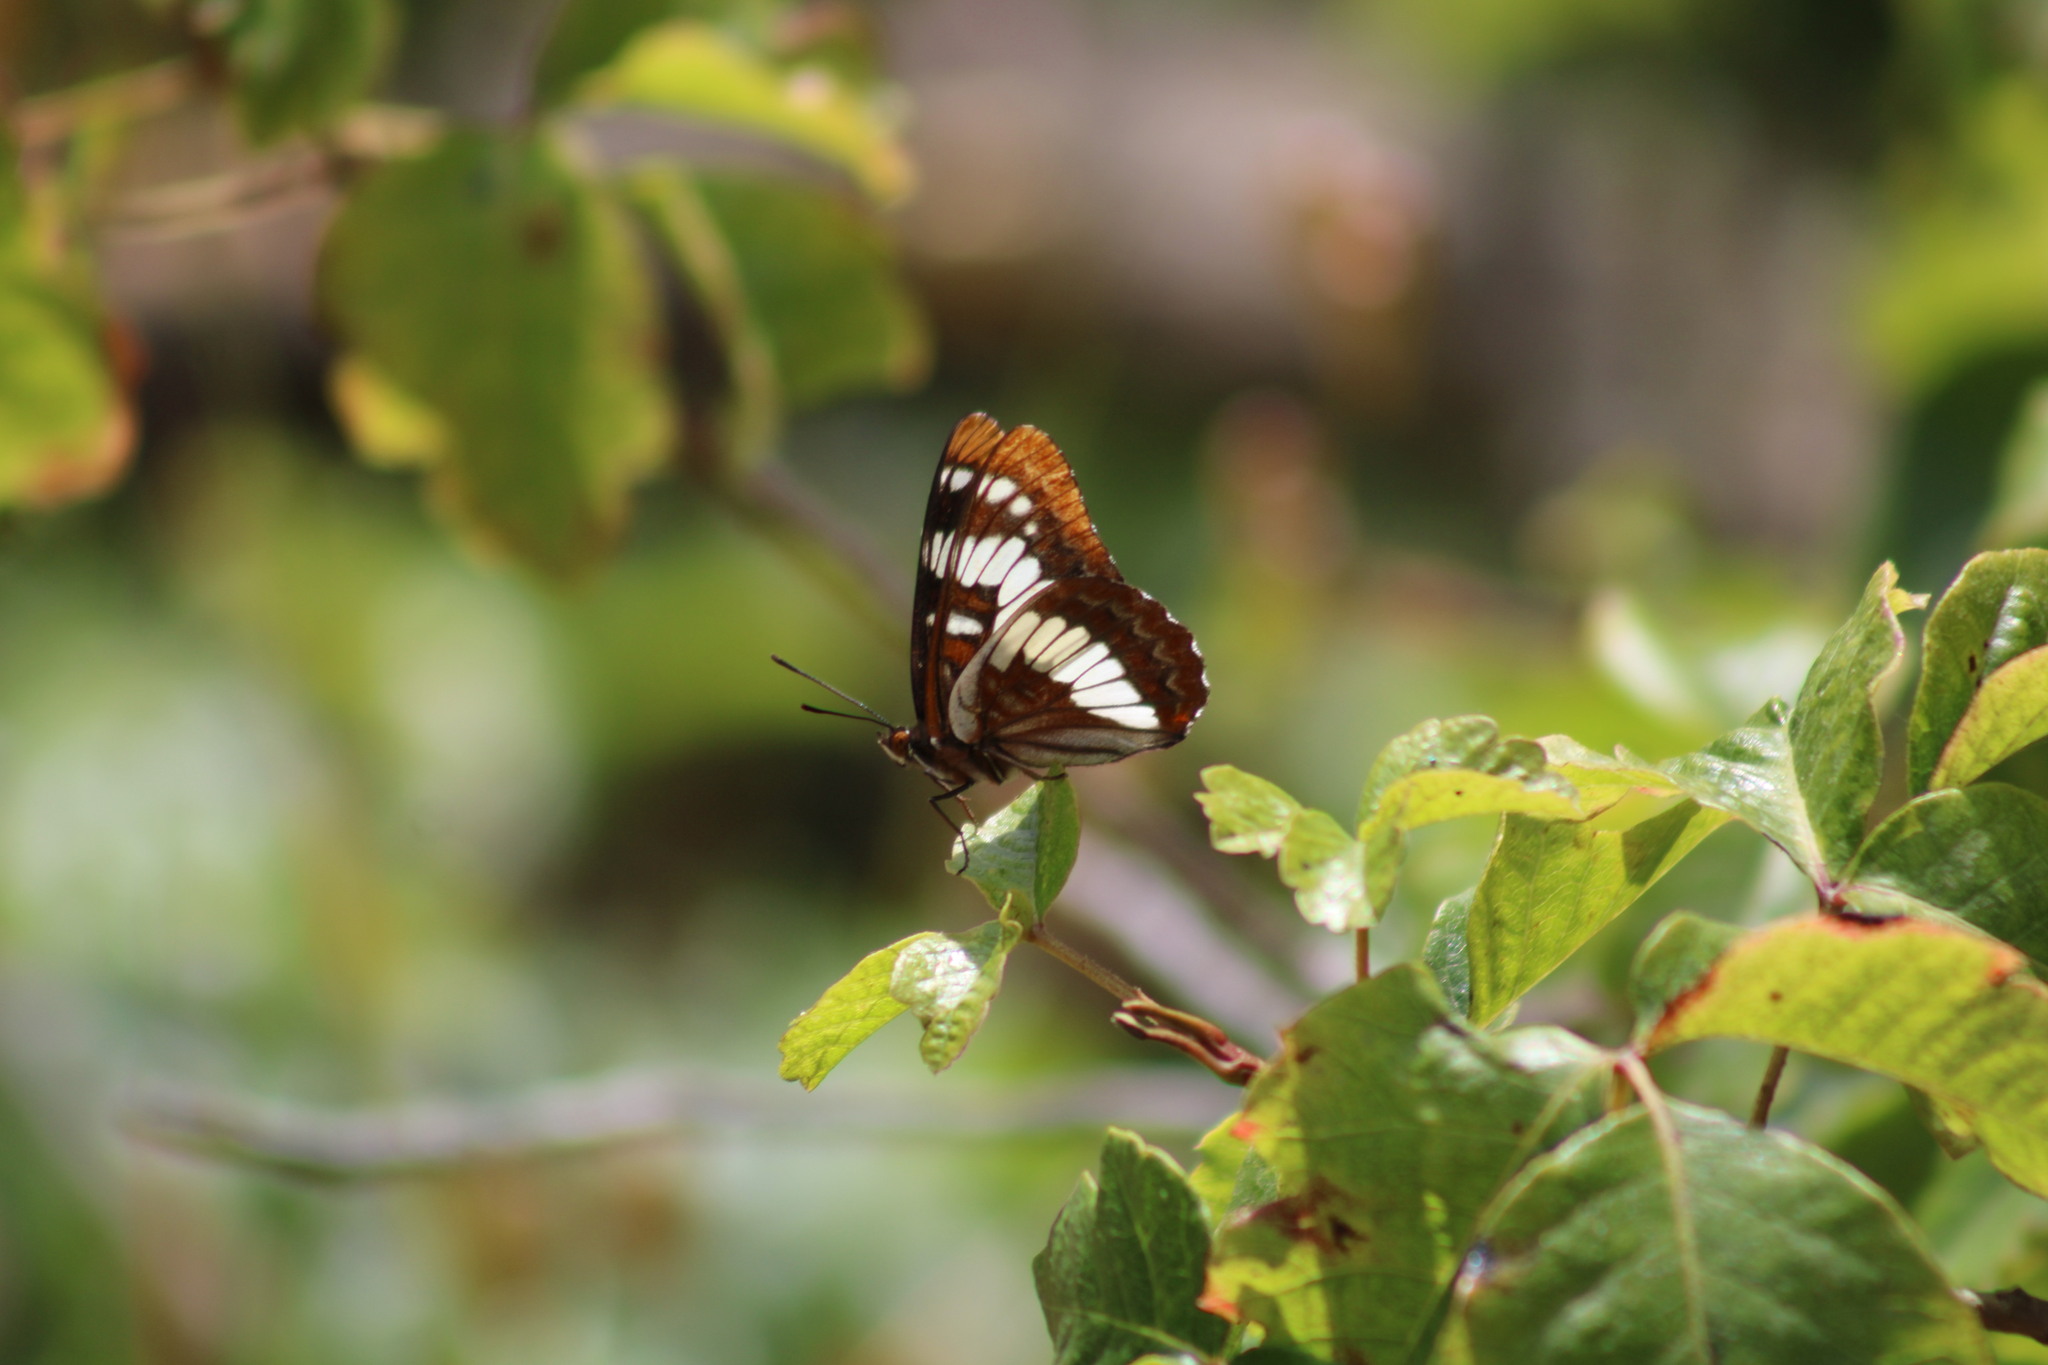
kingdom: Animalia
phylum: Arthropoda
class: Insecta
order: Lepidoptera
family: Nymphalidae
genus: Limenitis
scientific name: Limenitis lorquini
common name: Lorquin's admiral
